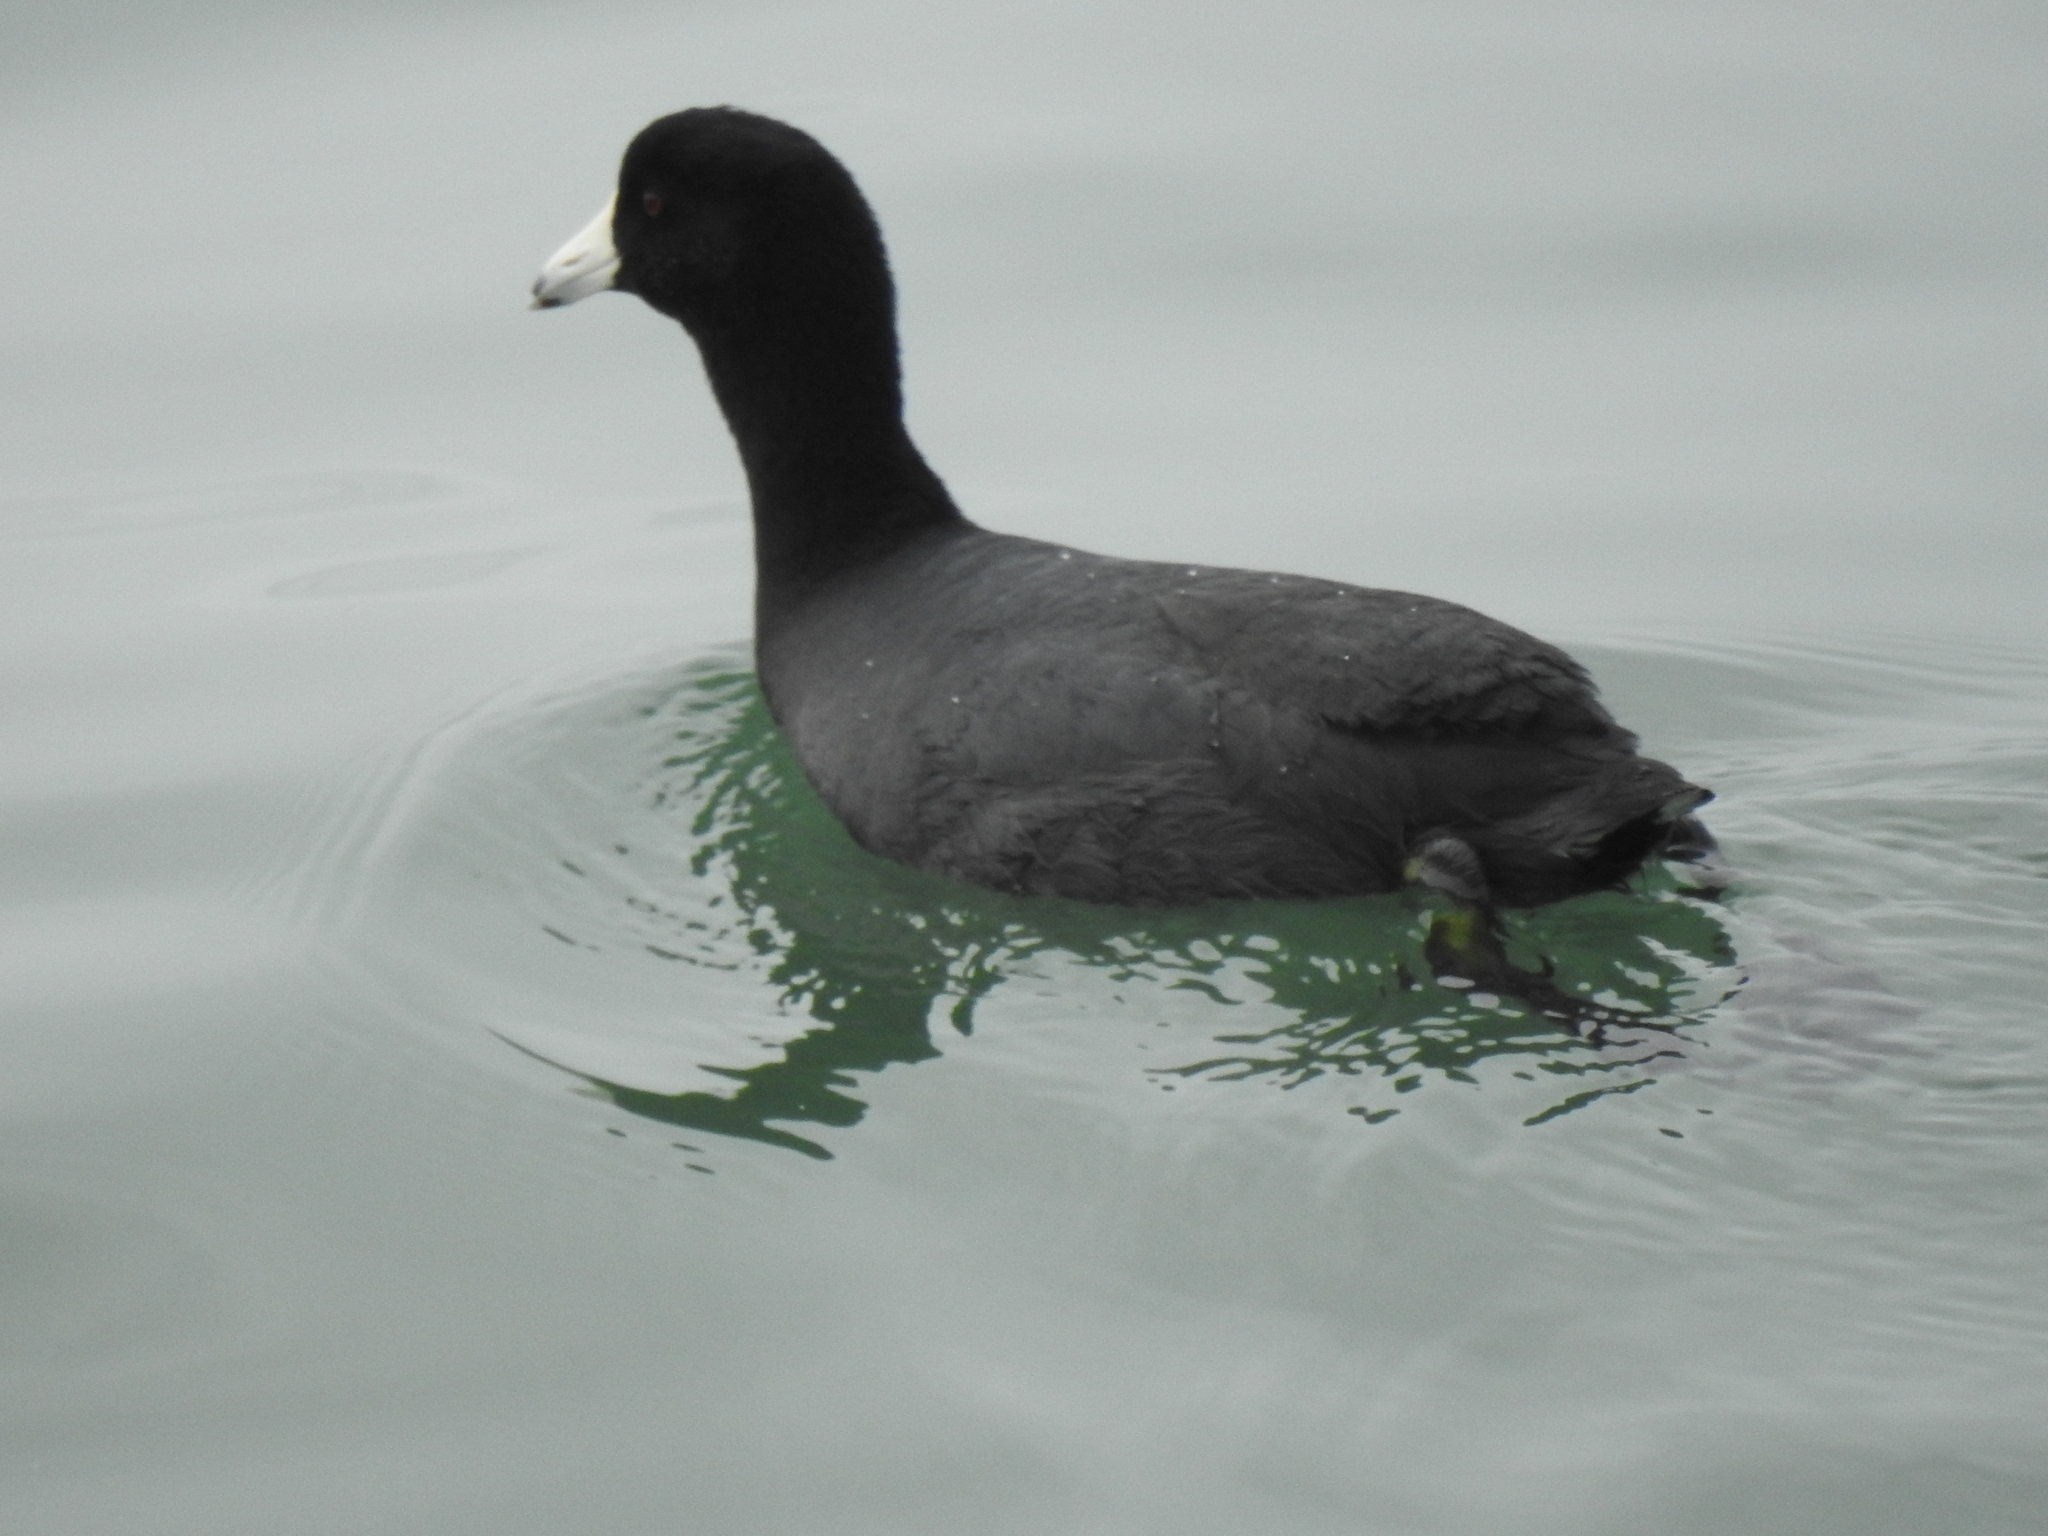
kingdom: Animalia
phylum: Chordata
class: Aves
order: Gruiformes
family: Rallidae
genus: Fulica
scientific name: Fulica americana
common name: American coot
